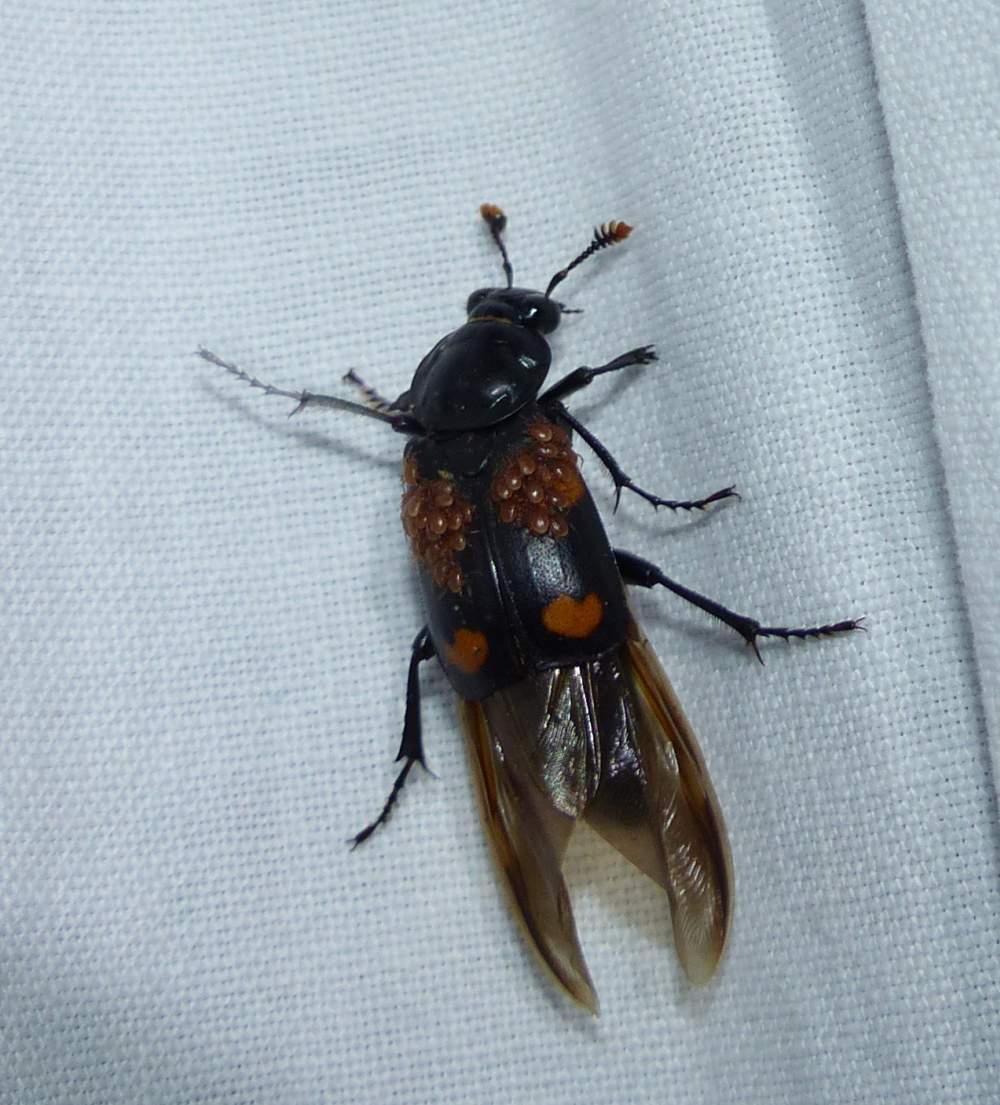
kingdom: Animalia
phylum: Arthropoda
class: Insecta
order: Coleoptera
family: Staphylinidae
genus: Nicrophorus
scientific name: Nicrophorus orbicollis
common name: Roundneck sexton beetle
